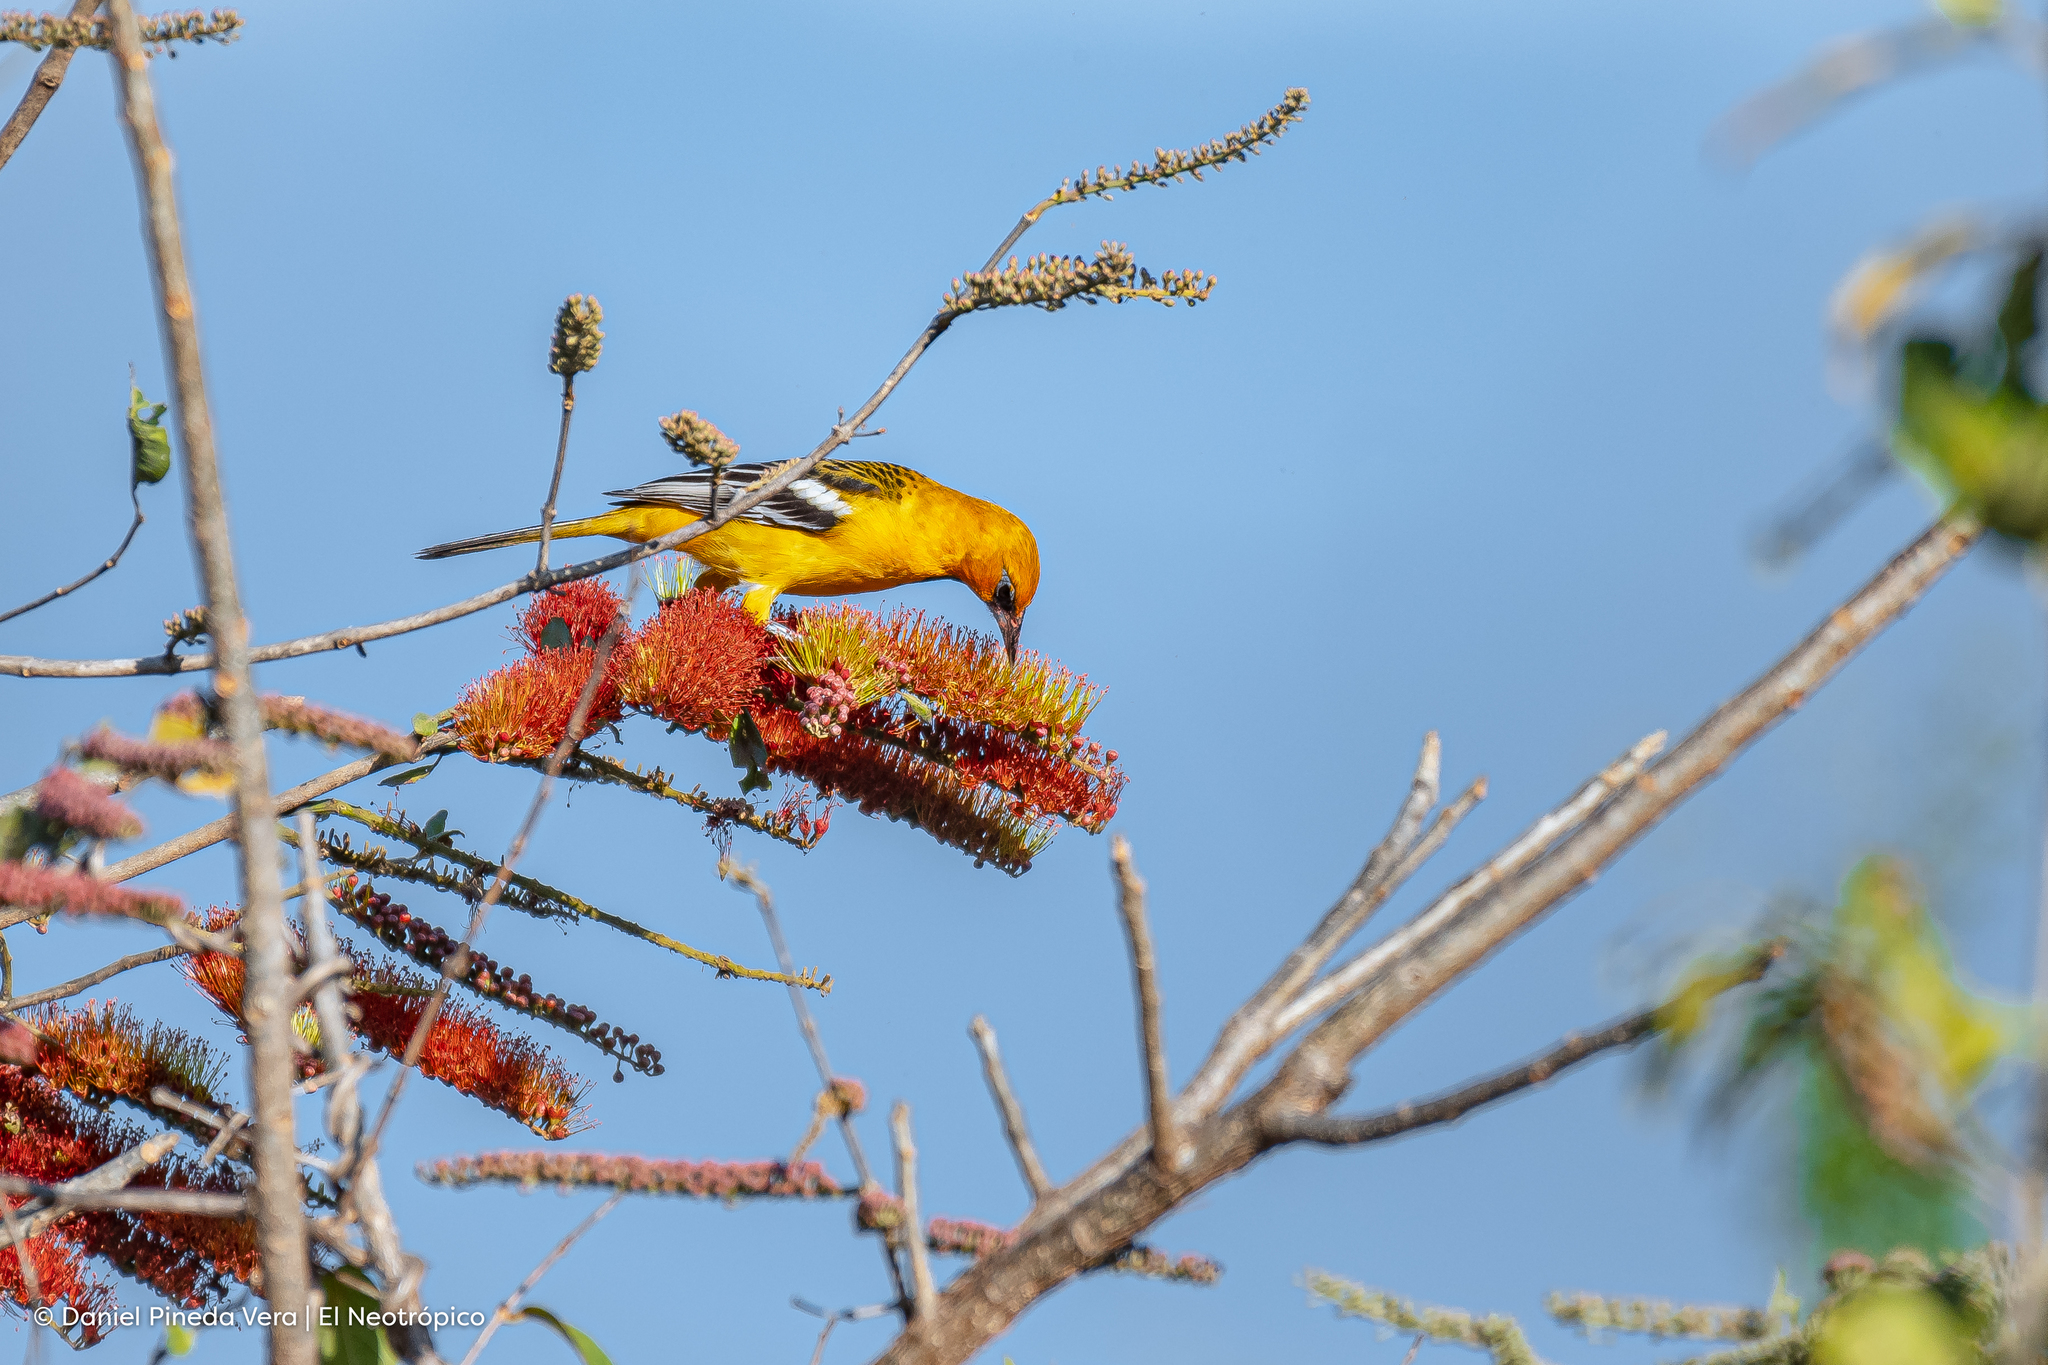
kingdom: Animalia
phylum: Chordata
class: Aves
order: Passeriformes
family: Icteridae
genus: Icterus
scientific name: Icterus pustulatus
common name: Streak-backed oriole
